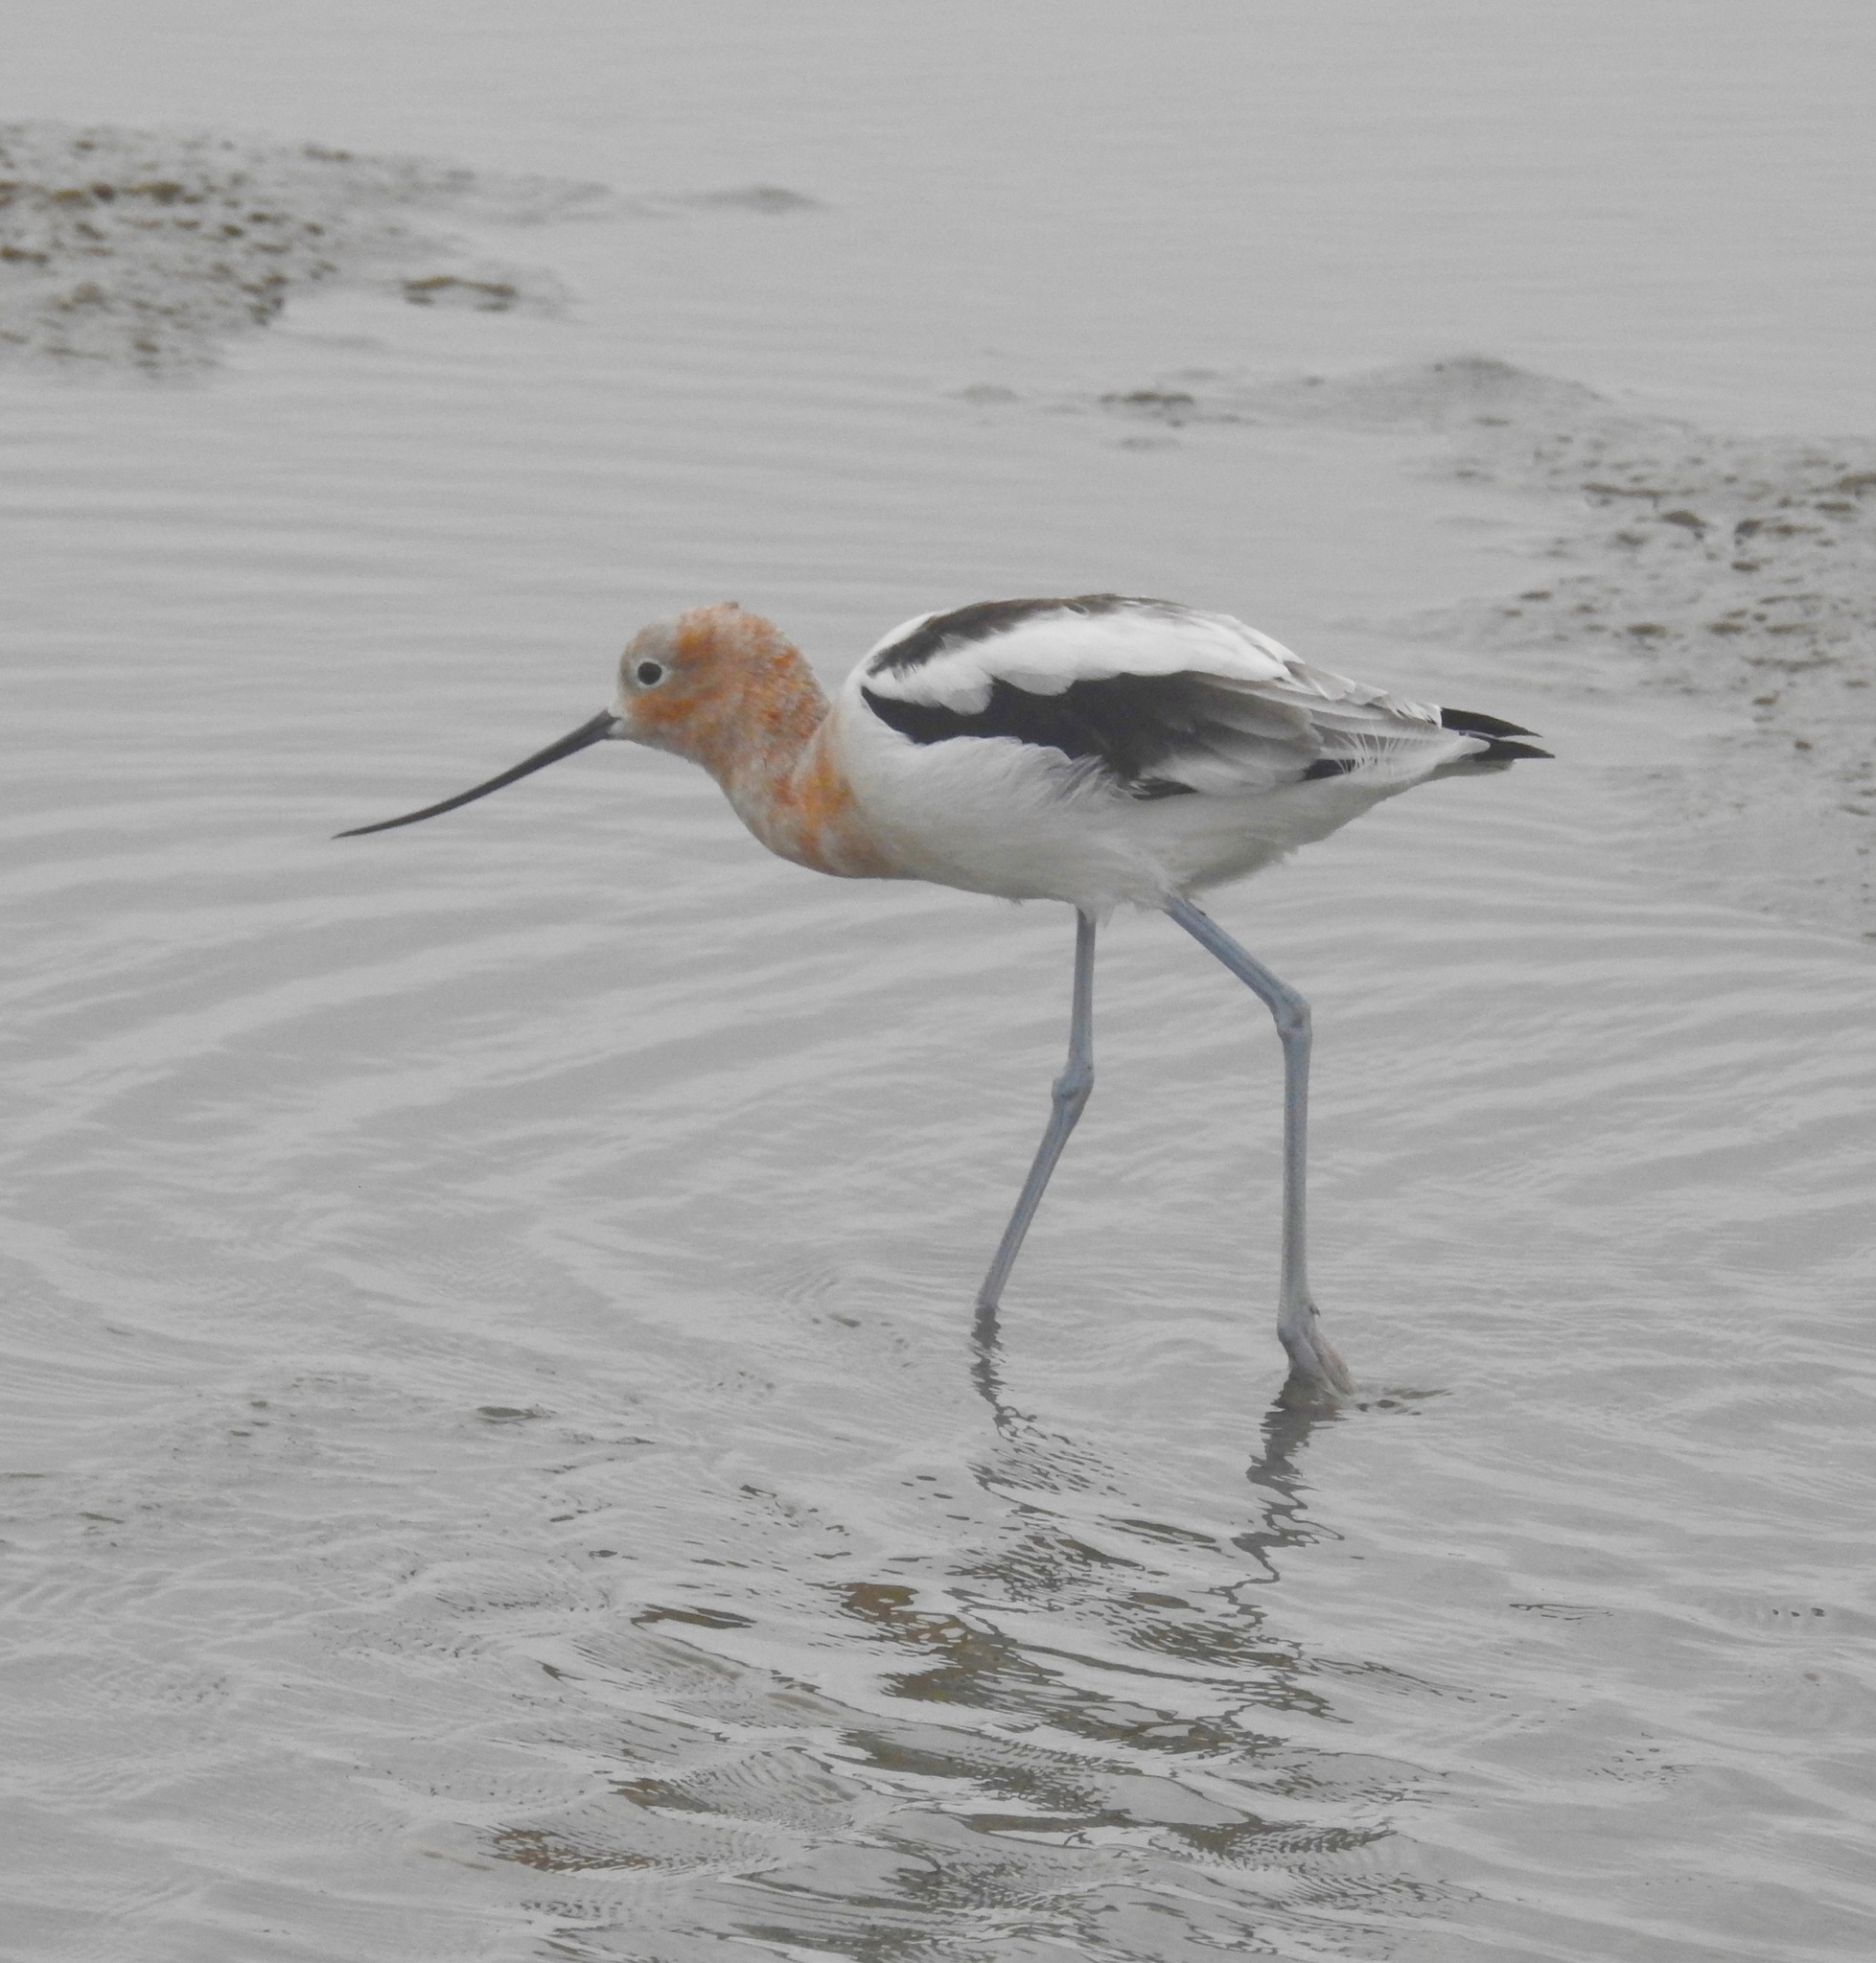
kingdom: Animalia
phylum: Chordata
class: Aves
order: Charadriiformes
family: Recurvirostridae
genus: Recurvirostra
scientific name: Recurvirostra americana
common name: American avocet
